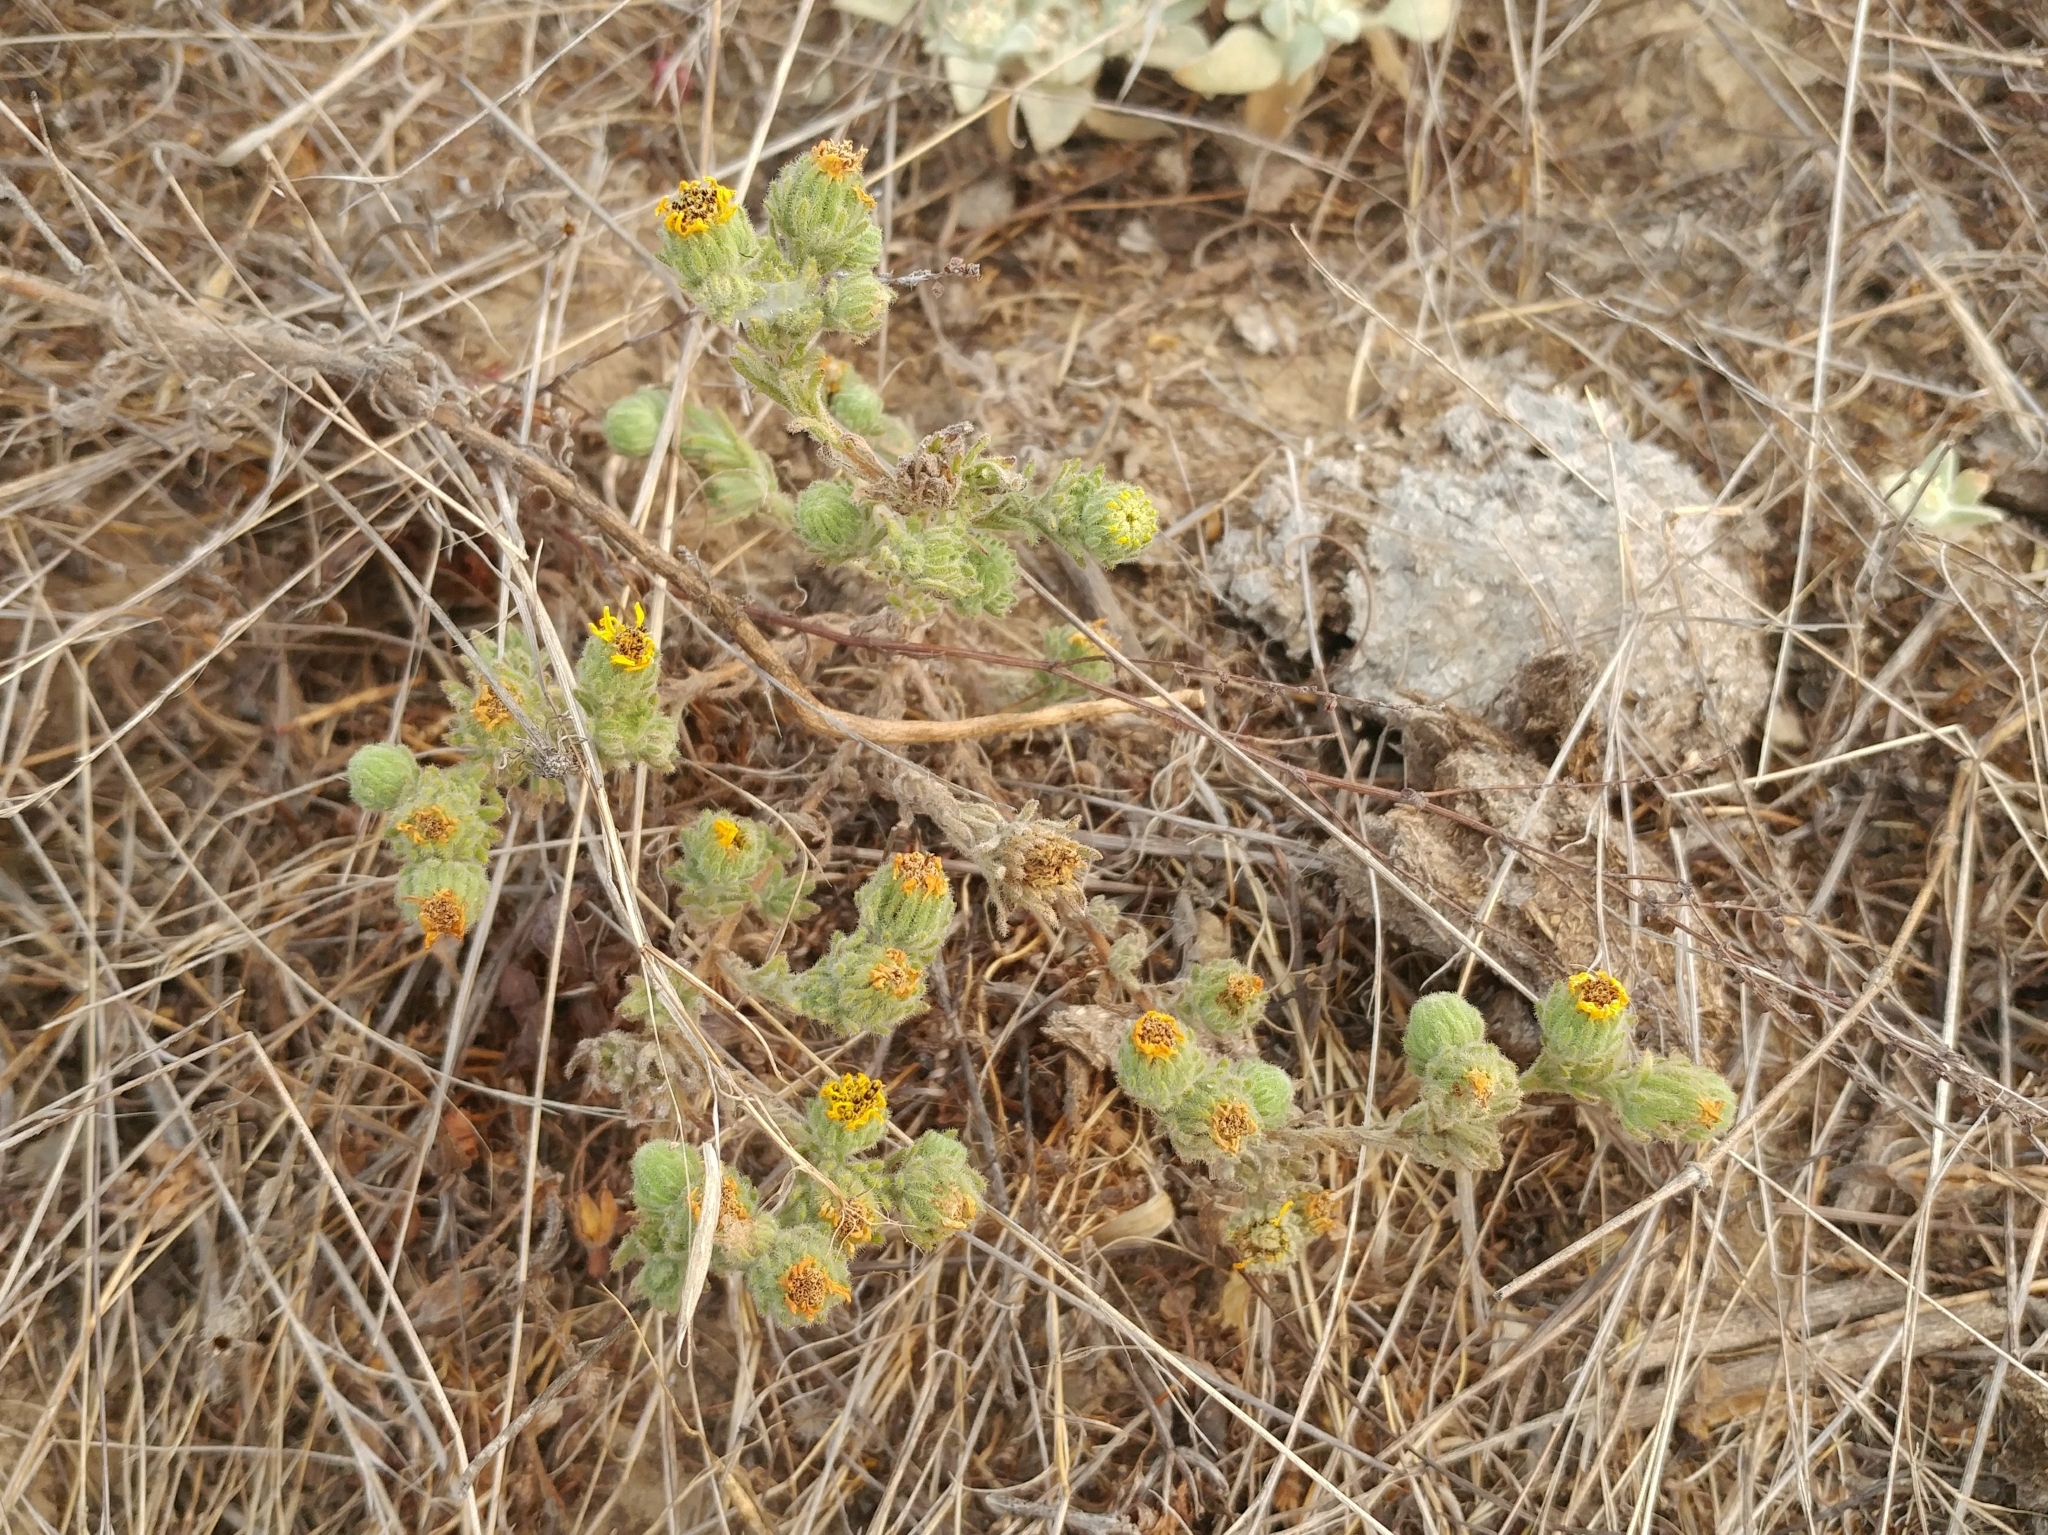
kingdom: Plantae
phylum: Tracheophyta
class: Magnoliopsida
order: Asterales
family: Asteraceae
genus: Deinandra
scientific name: Deinandra increscens
